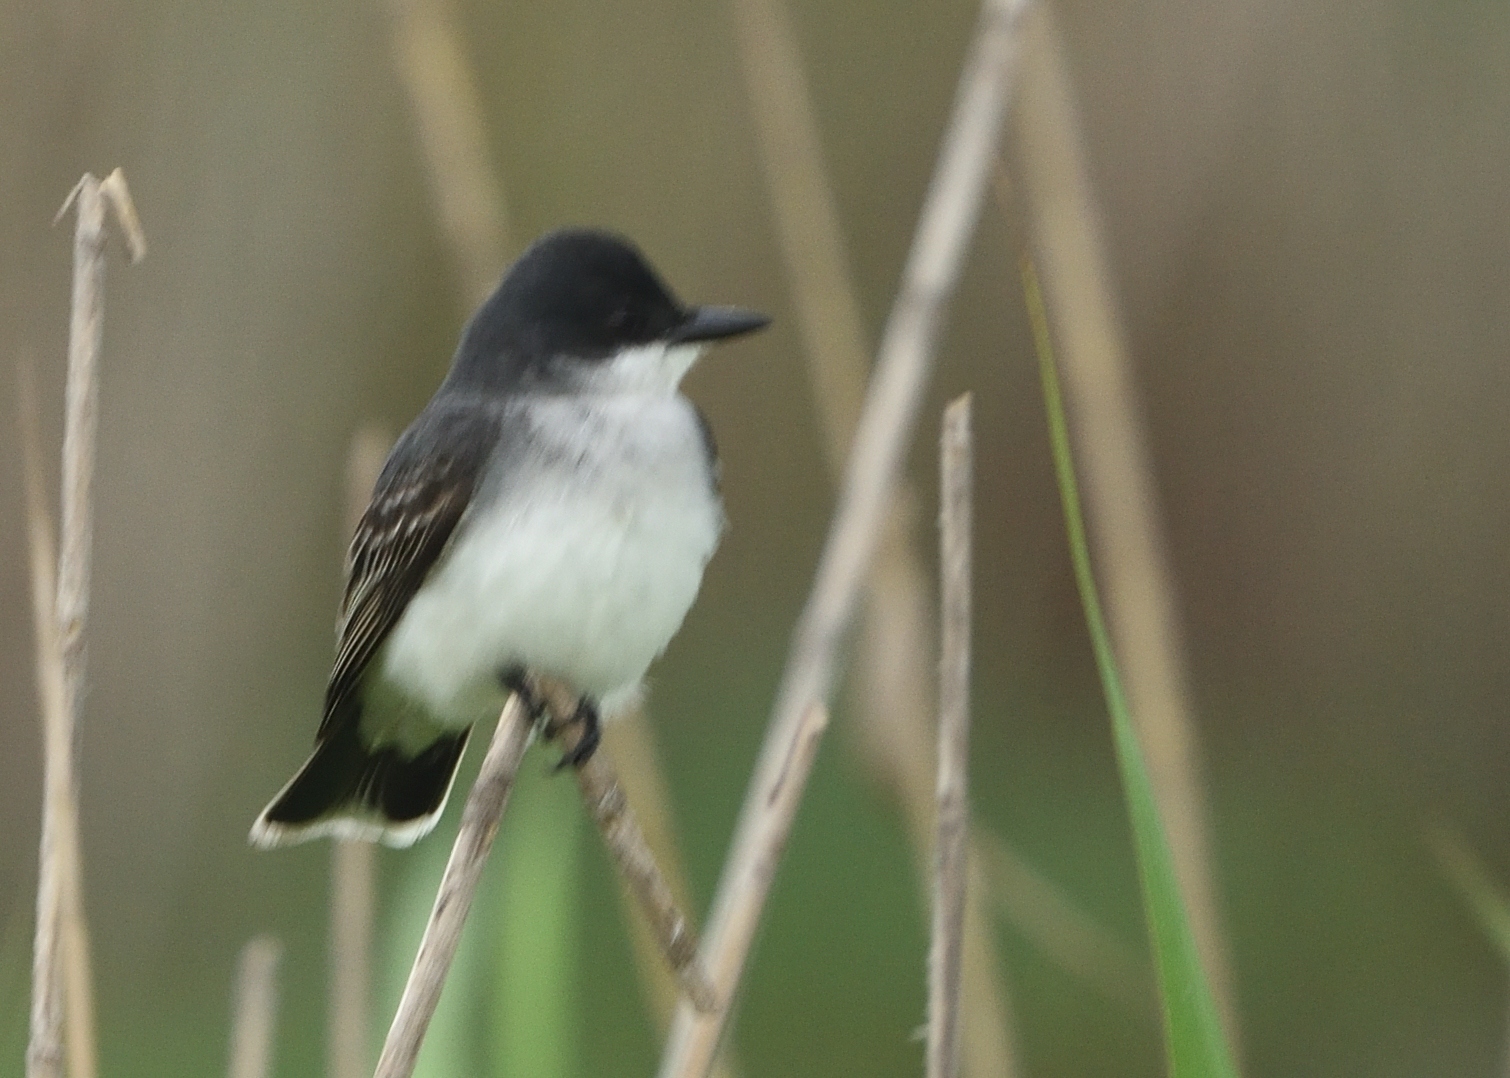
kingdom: Animalia
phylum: Chordata
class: Aves
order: Passeriformes
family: Tyrannidae
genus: Tyrannus
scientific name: Tyrannus tyrannus
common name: Eastern kingbird
